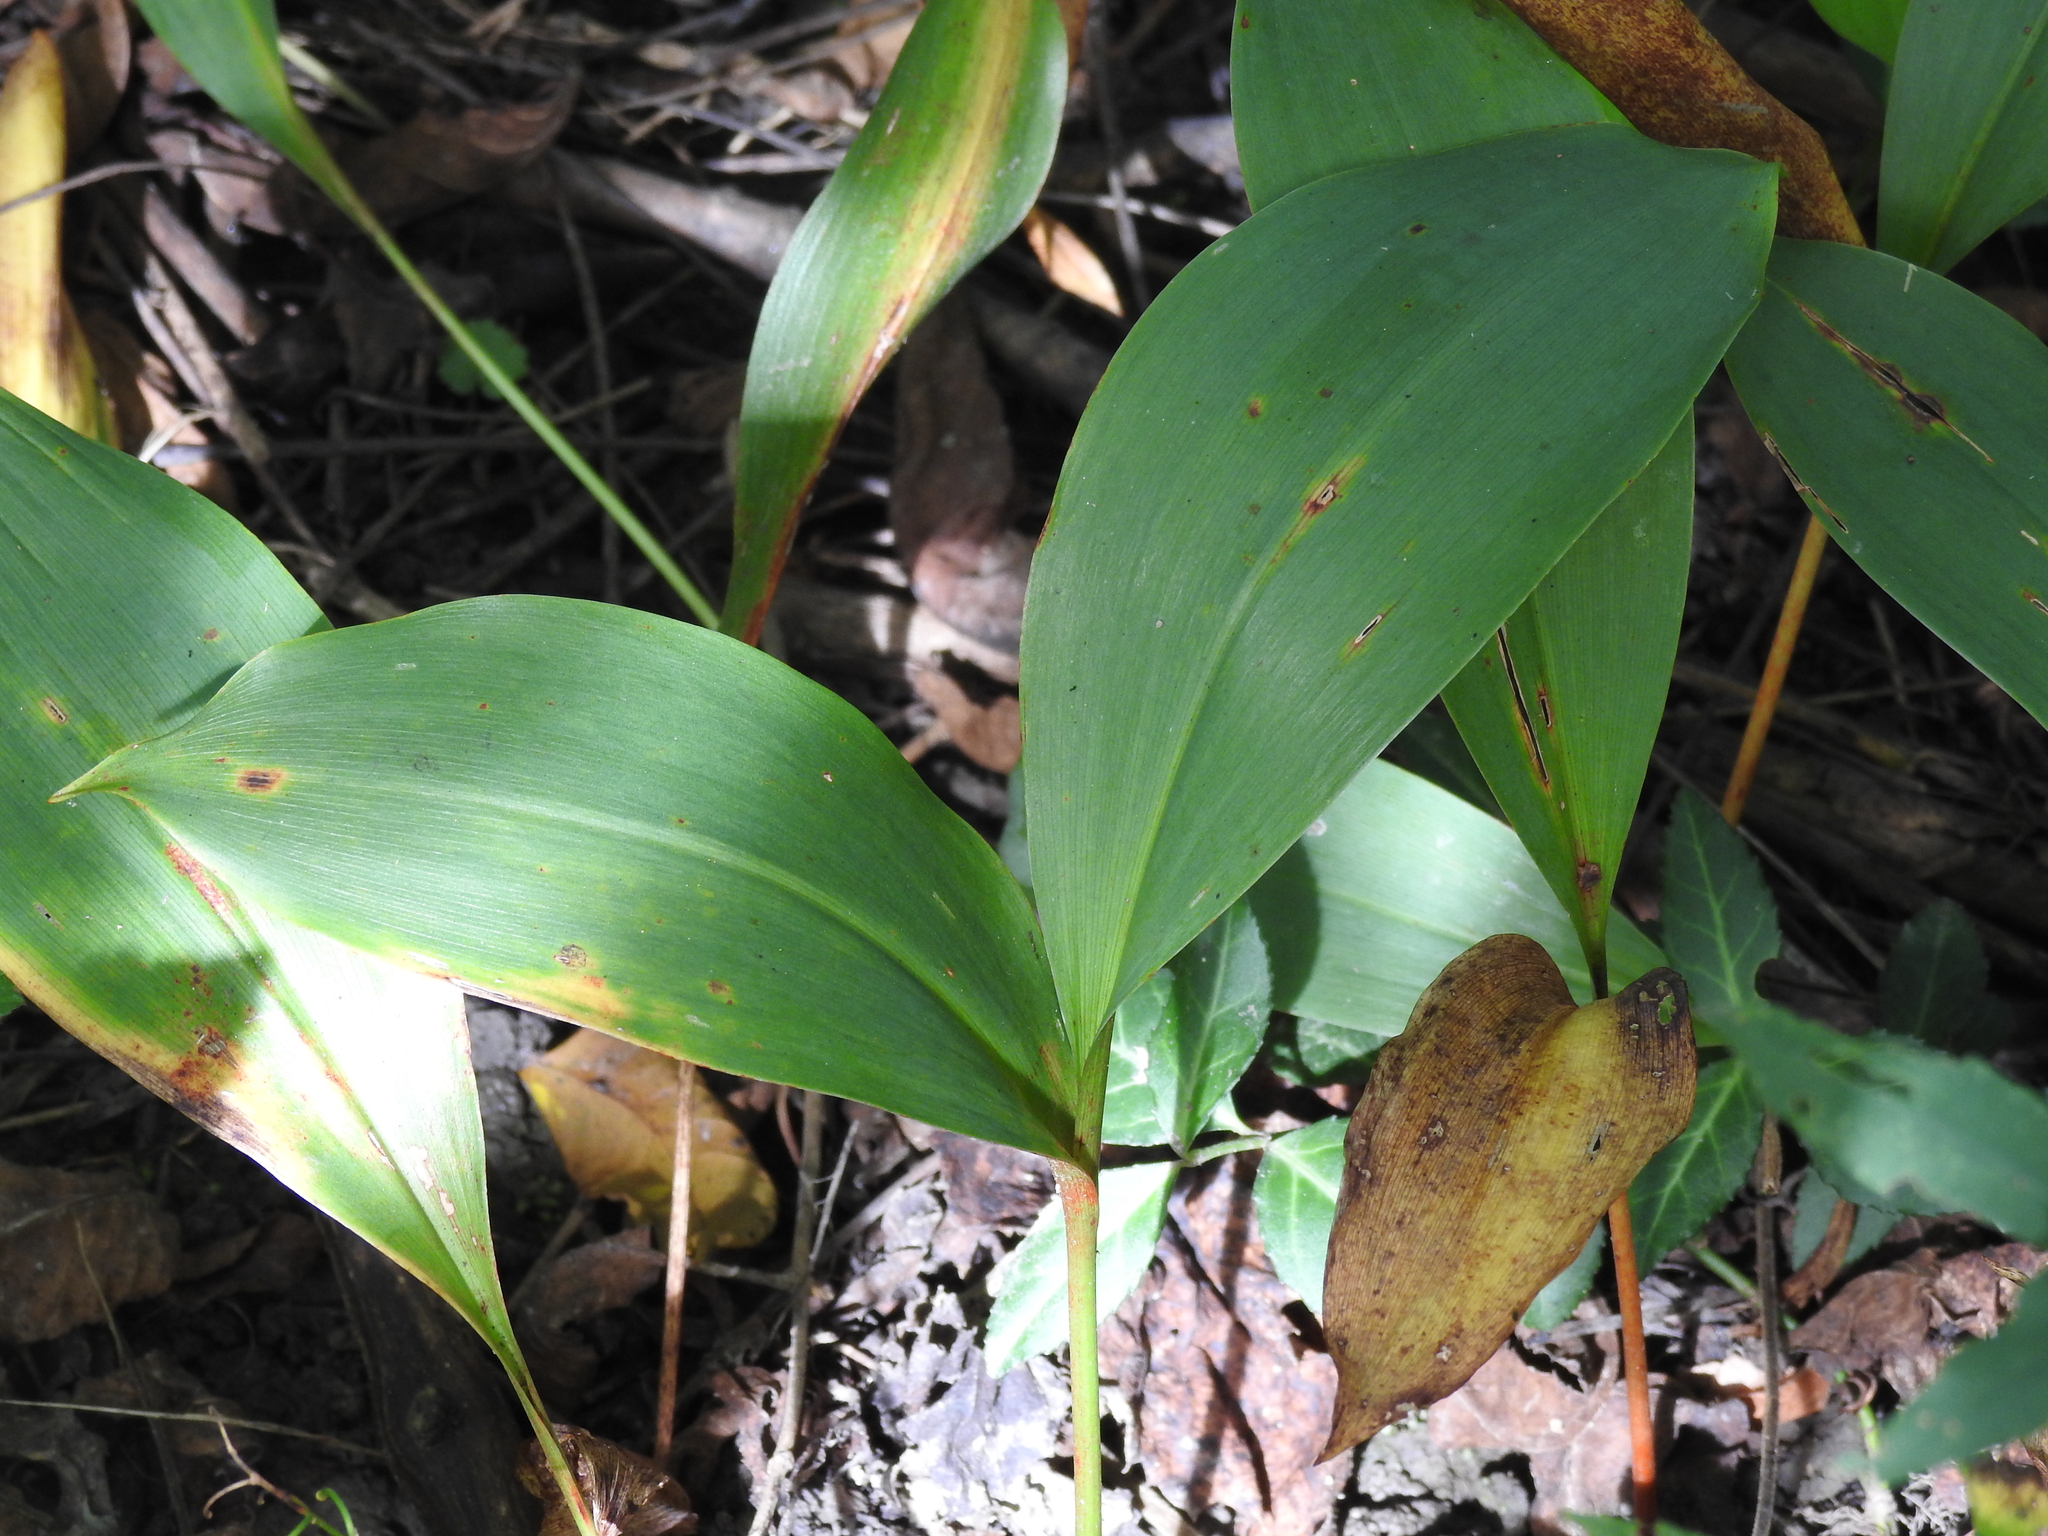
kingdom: Plantae
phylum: Tracheophyta
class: Liliopsida
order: Asparagales
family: Asparagaceae
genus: Convallaria
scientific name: Convallaria majalis
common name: Lily-of-the-valley
